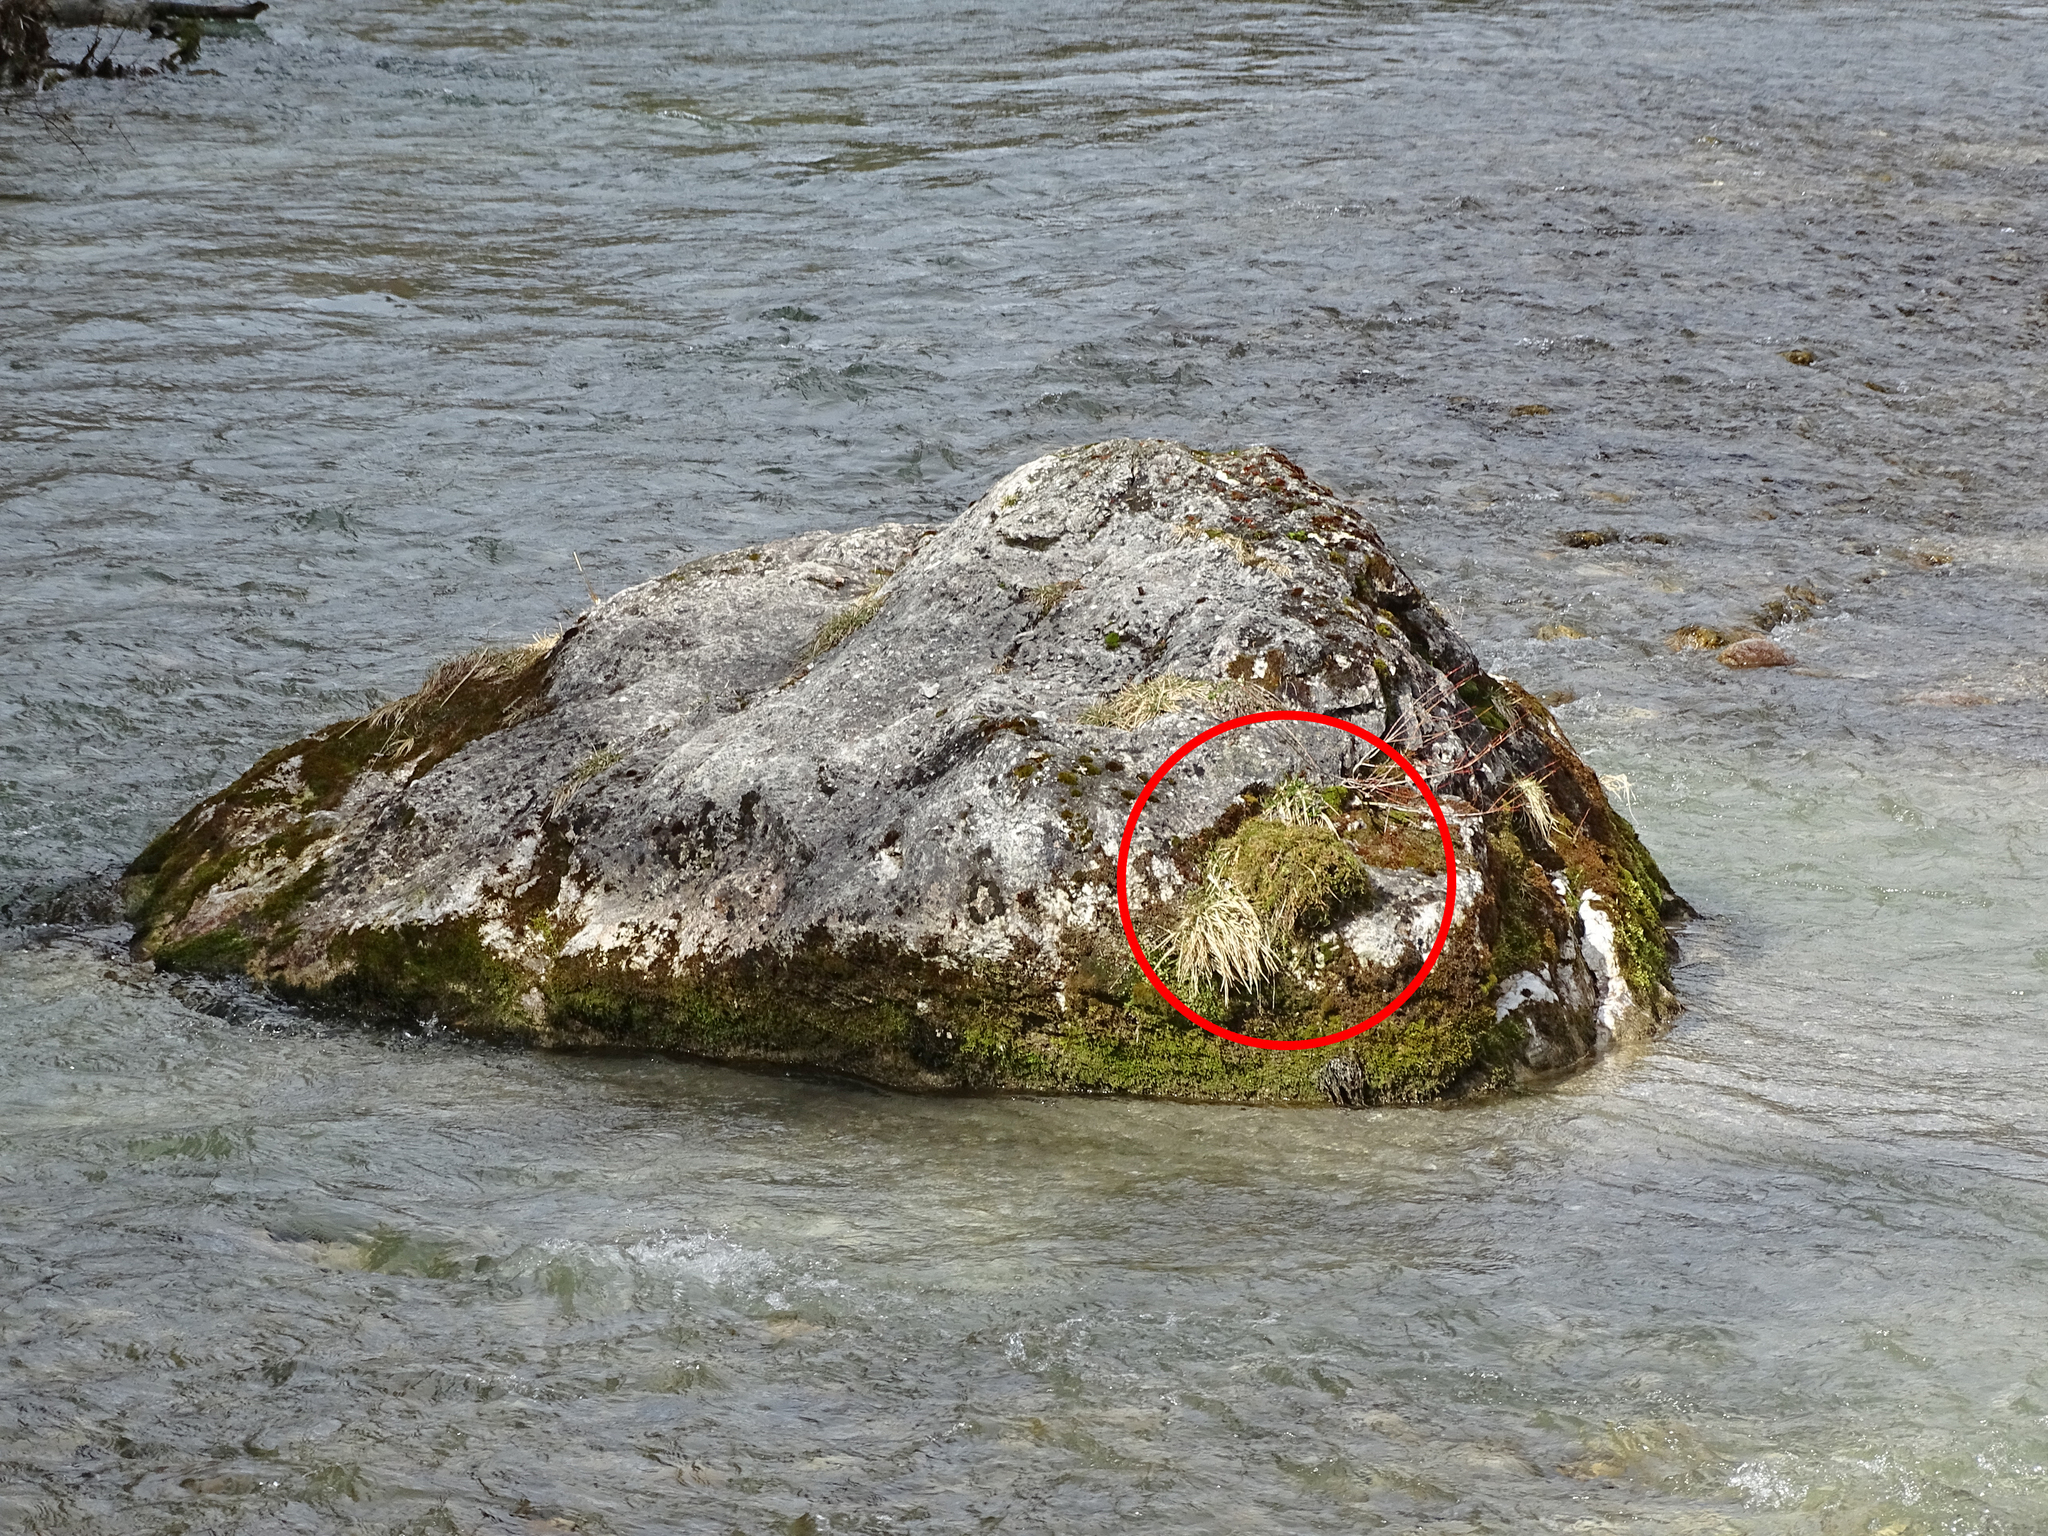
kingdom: Animalia
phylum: Chordata
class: Aves
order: Passeriformes
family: Cinclidae
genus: Cinclus
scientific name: Cinclus cinclus
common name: White-throated dipper
